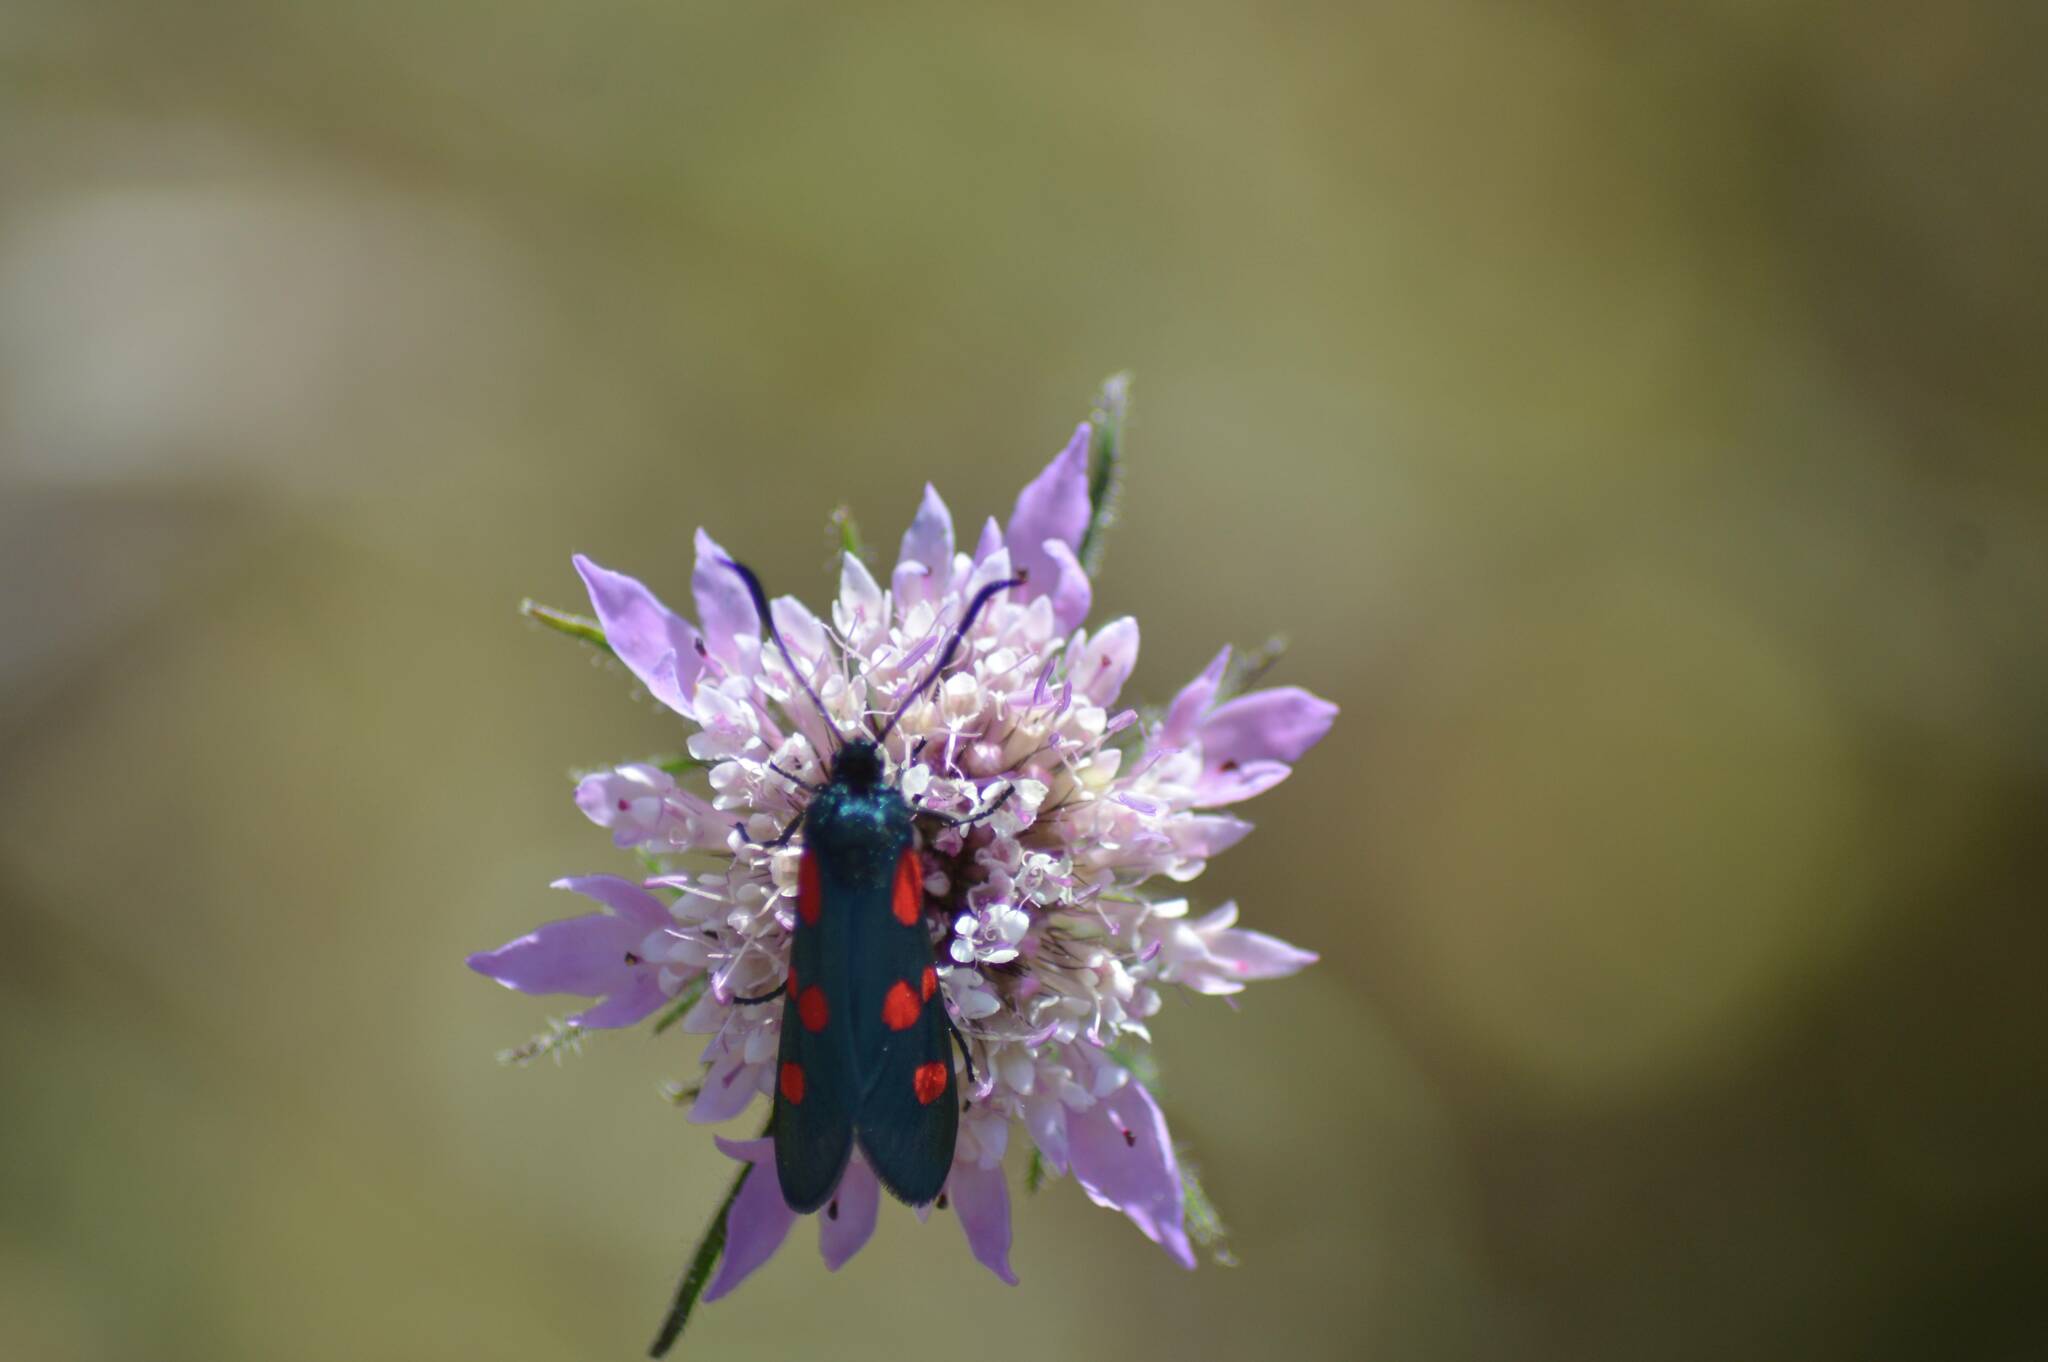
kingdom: Animalia
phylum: Arthropoda
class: Insecta
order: Lepidoptera
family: Zygaenidae
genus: Zygaena
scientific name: Zygaena trifolii
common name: Five-spot burnet
